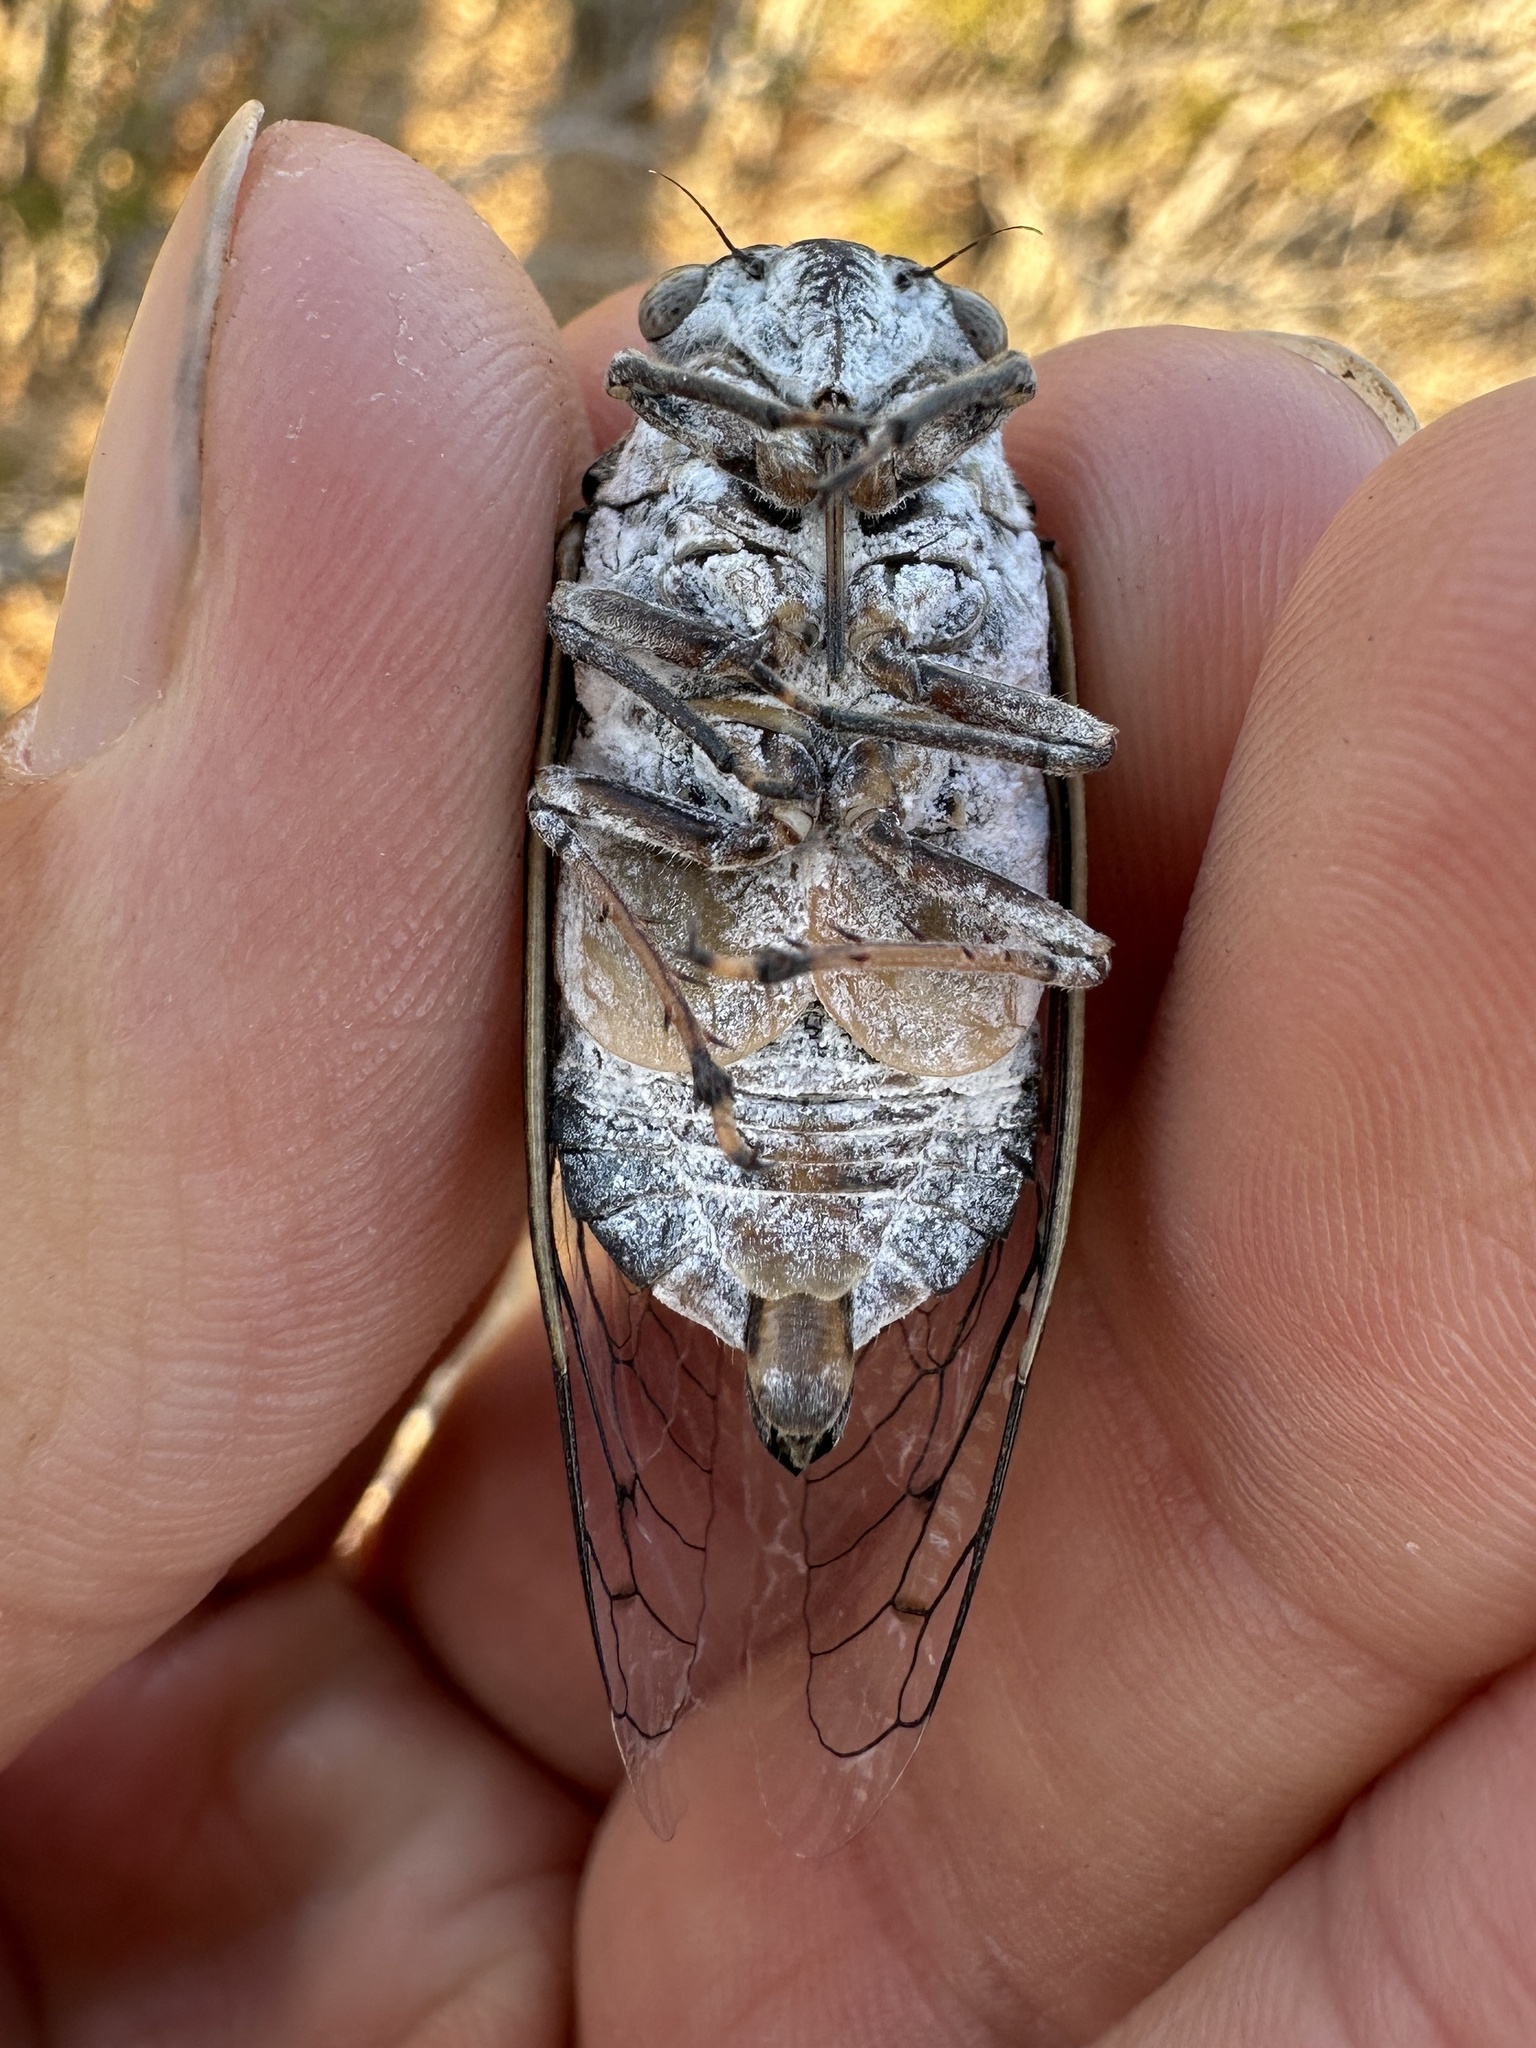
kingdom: Animalia
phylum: Arthropoda
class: Insecta
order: Hemiptera
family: Cicadidae
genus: Cacama
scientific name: Cacama valvata
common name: Cactus dodger
